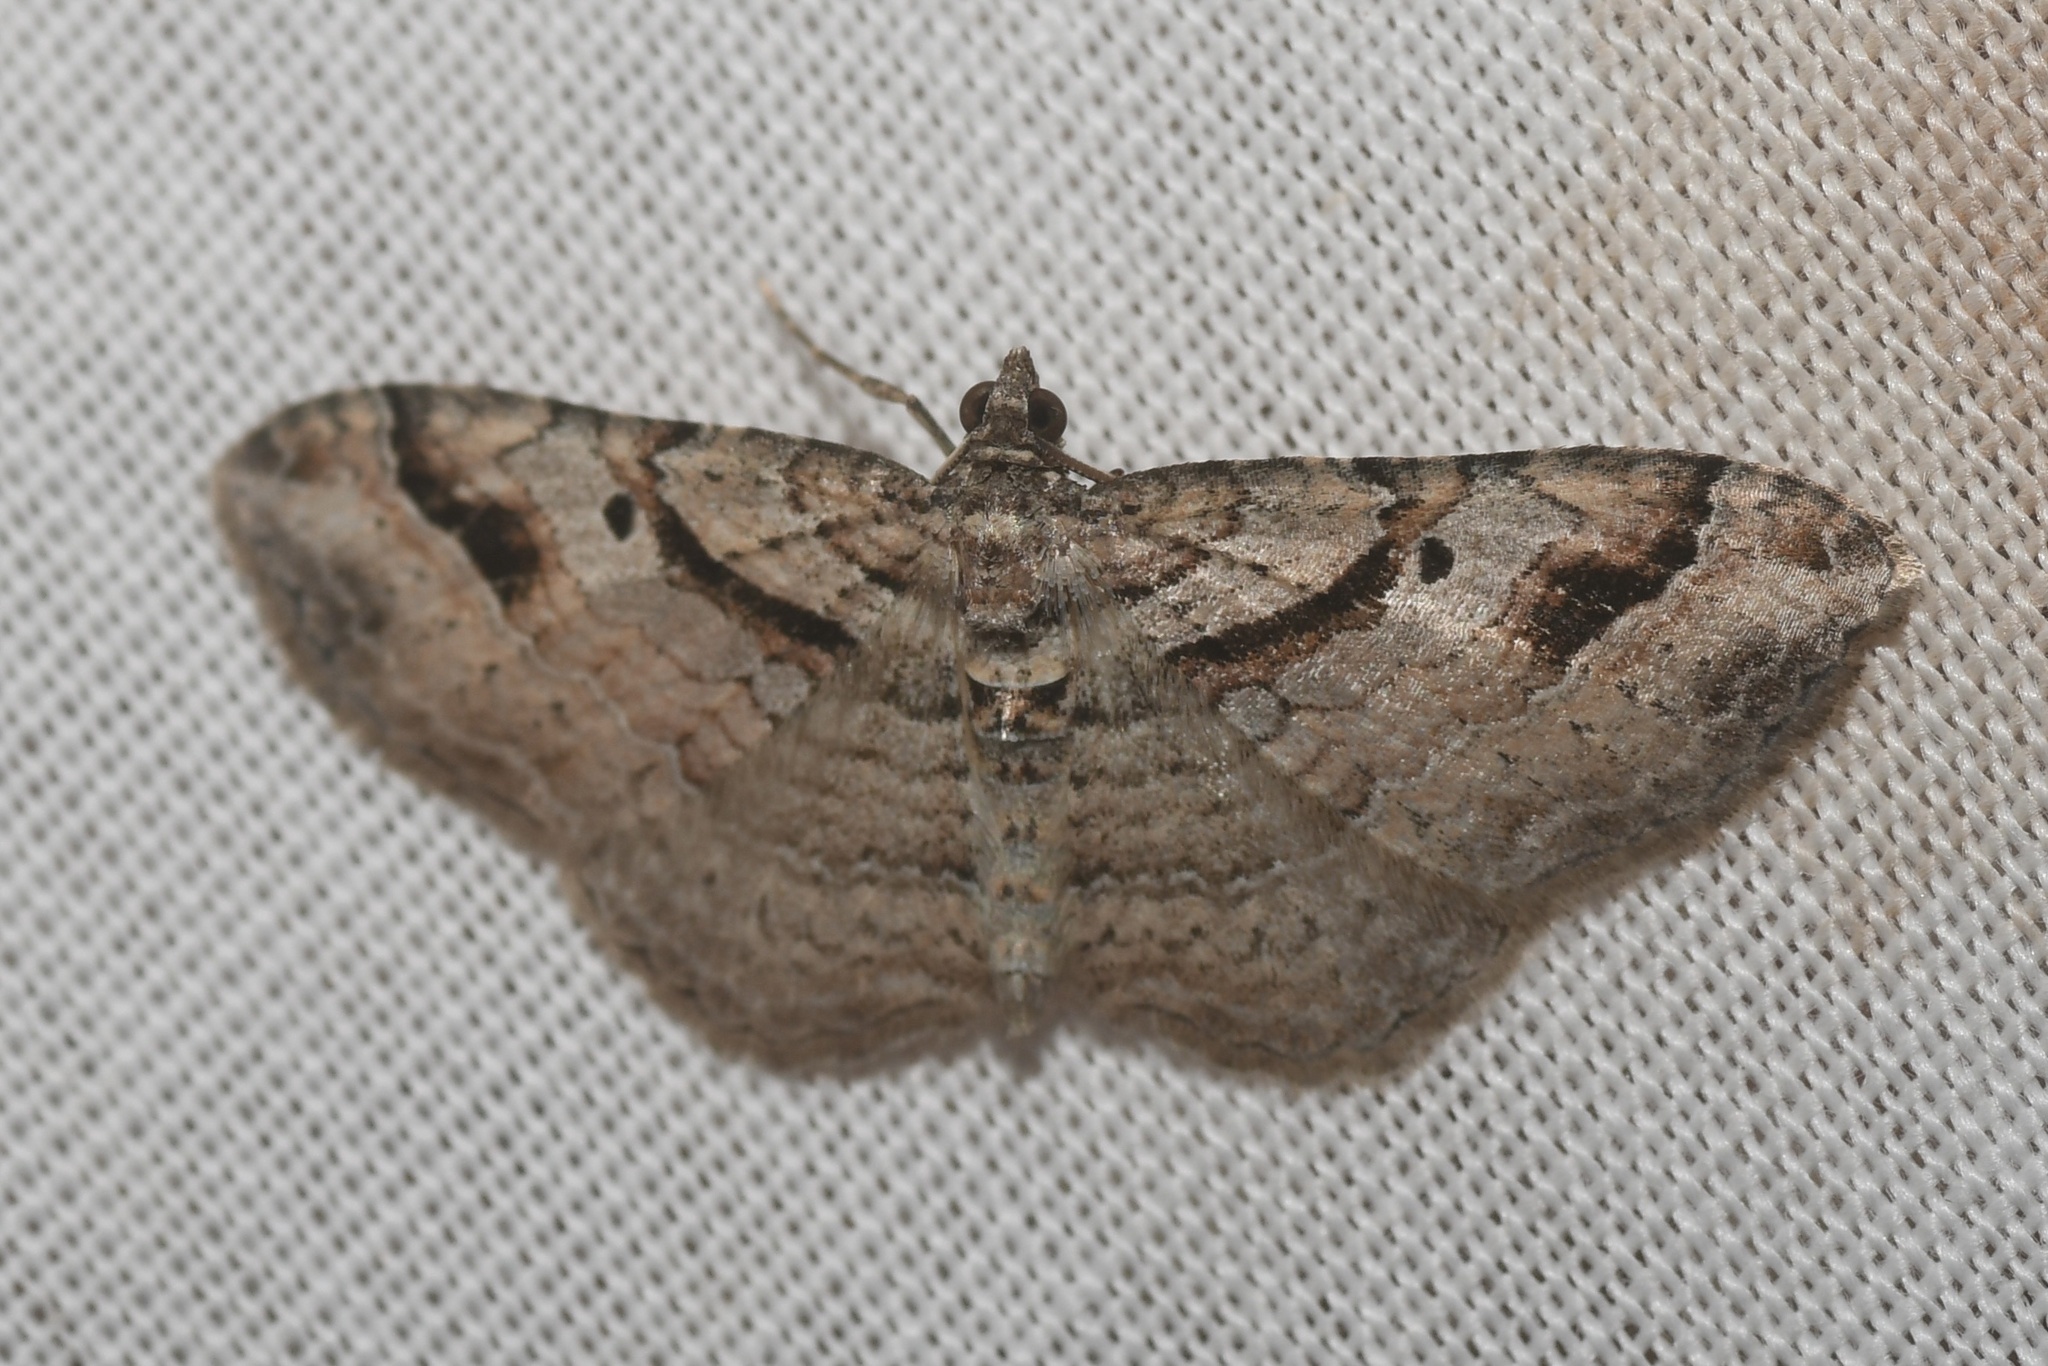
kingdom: Animalia
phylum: Arthropoda
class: Insecta
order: Lepidoptera
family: Geometridae
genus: Costaconvexa
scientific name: Costaconvexa centrostrigaria
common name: Bent-line carpet
